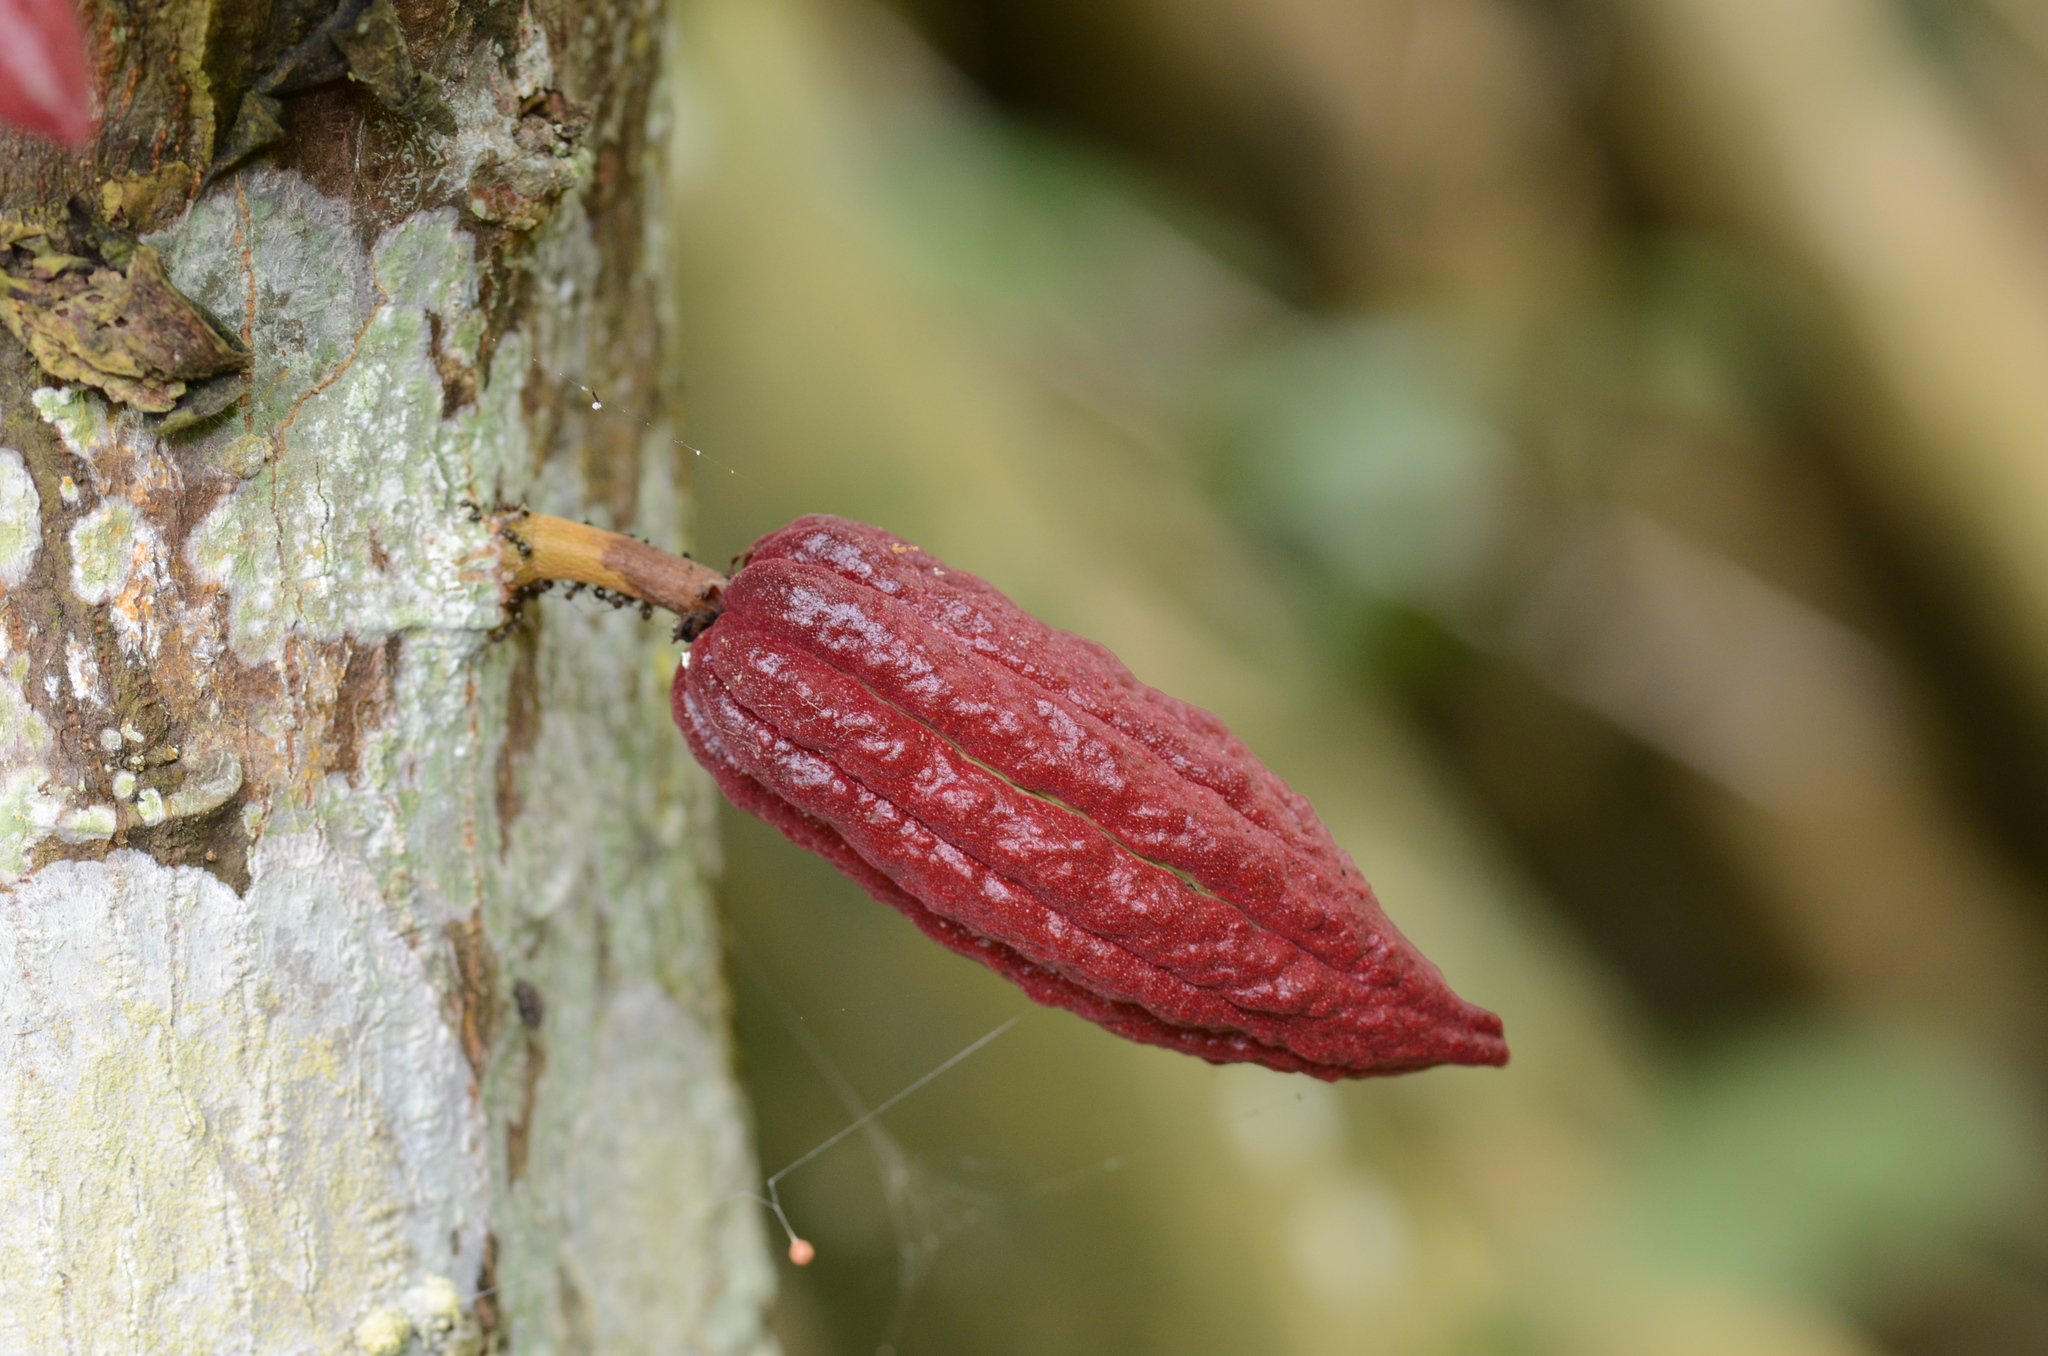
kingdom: Plantae
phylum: Tracheophyta
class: Magnoliopsida
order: Malvales
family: Malvaceae
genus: Theobroma
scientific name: Theobroma cacao
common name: Cocoa
